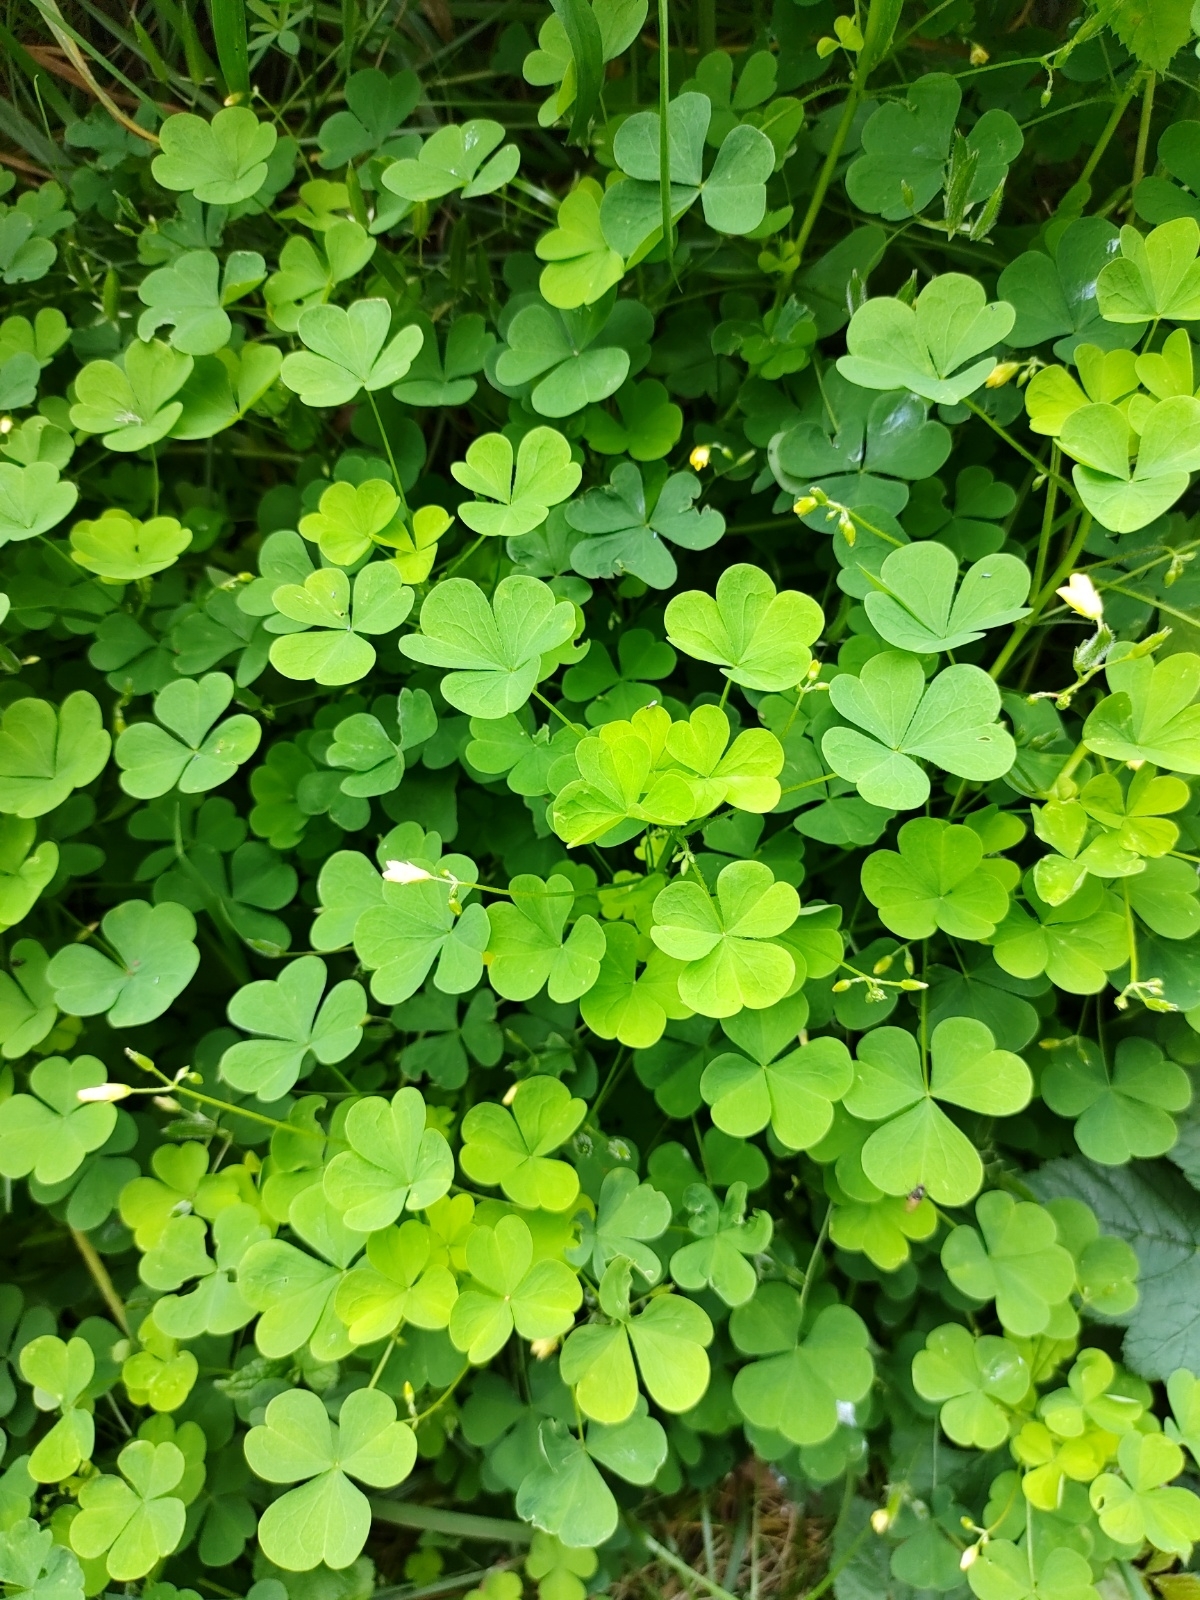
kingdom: Plantae
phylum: Tracheophyta
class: Magnoliopsida
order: Oxalidales
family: Oxalidaceae
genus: Oxalis
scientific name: Oxalis stricta
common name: Upright yellow-sorrel
